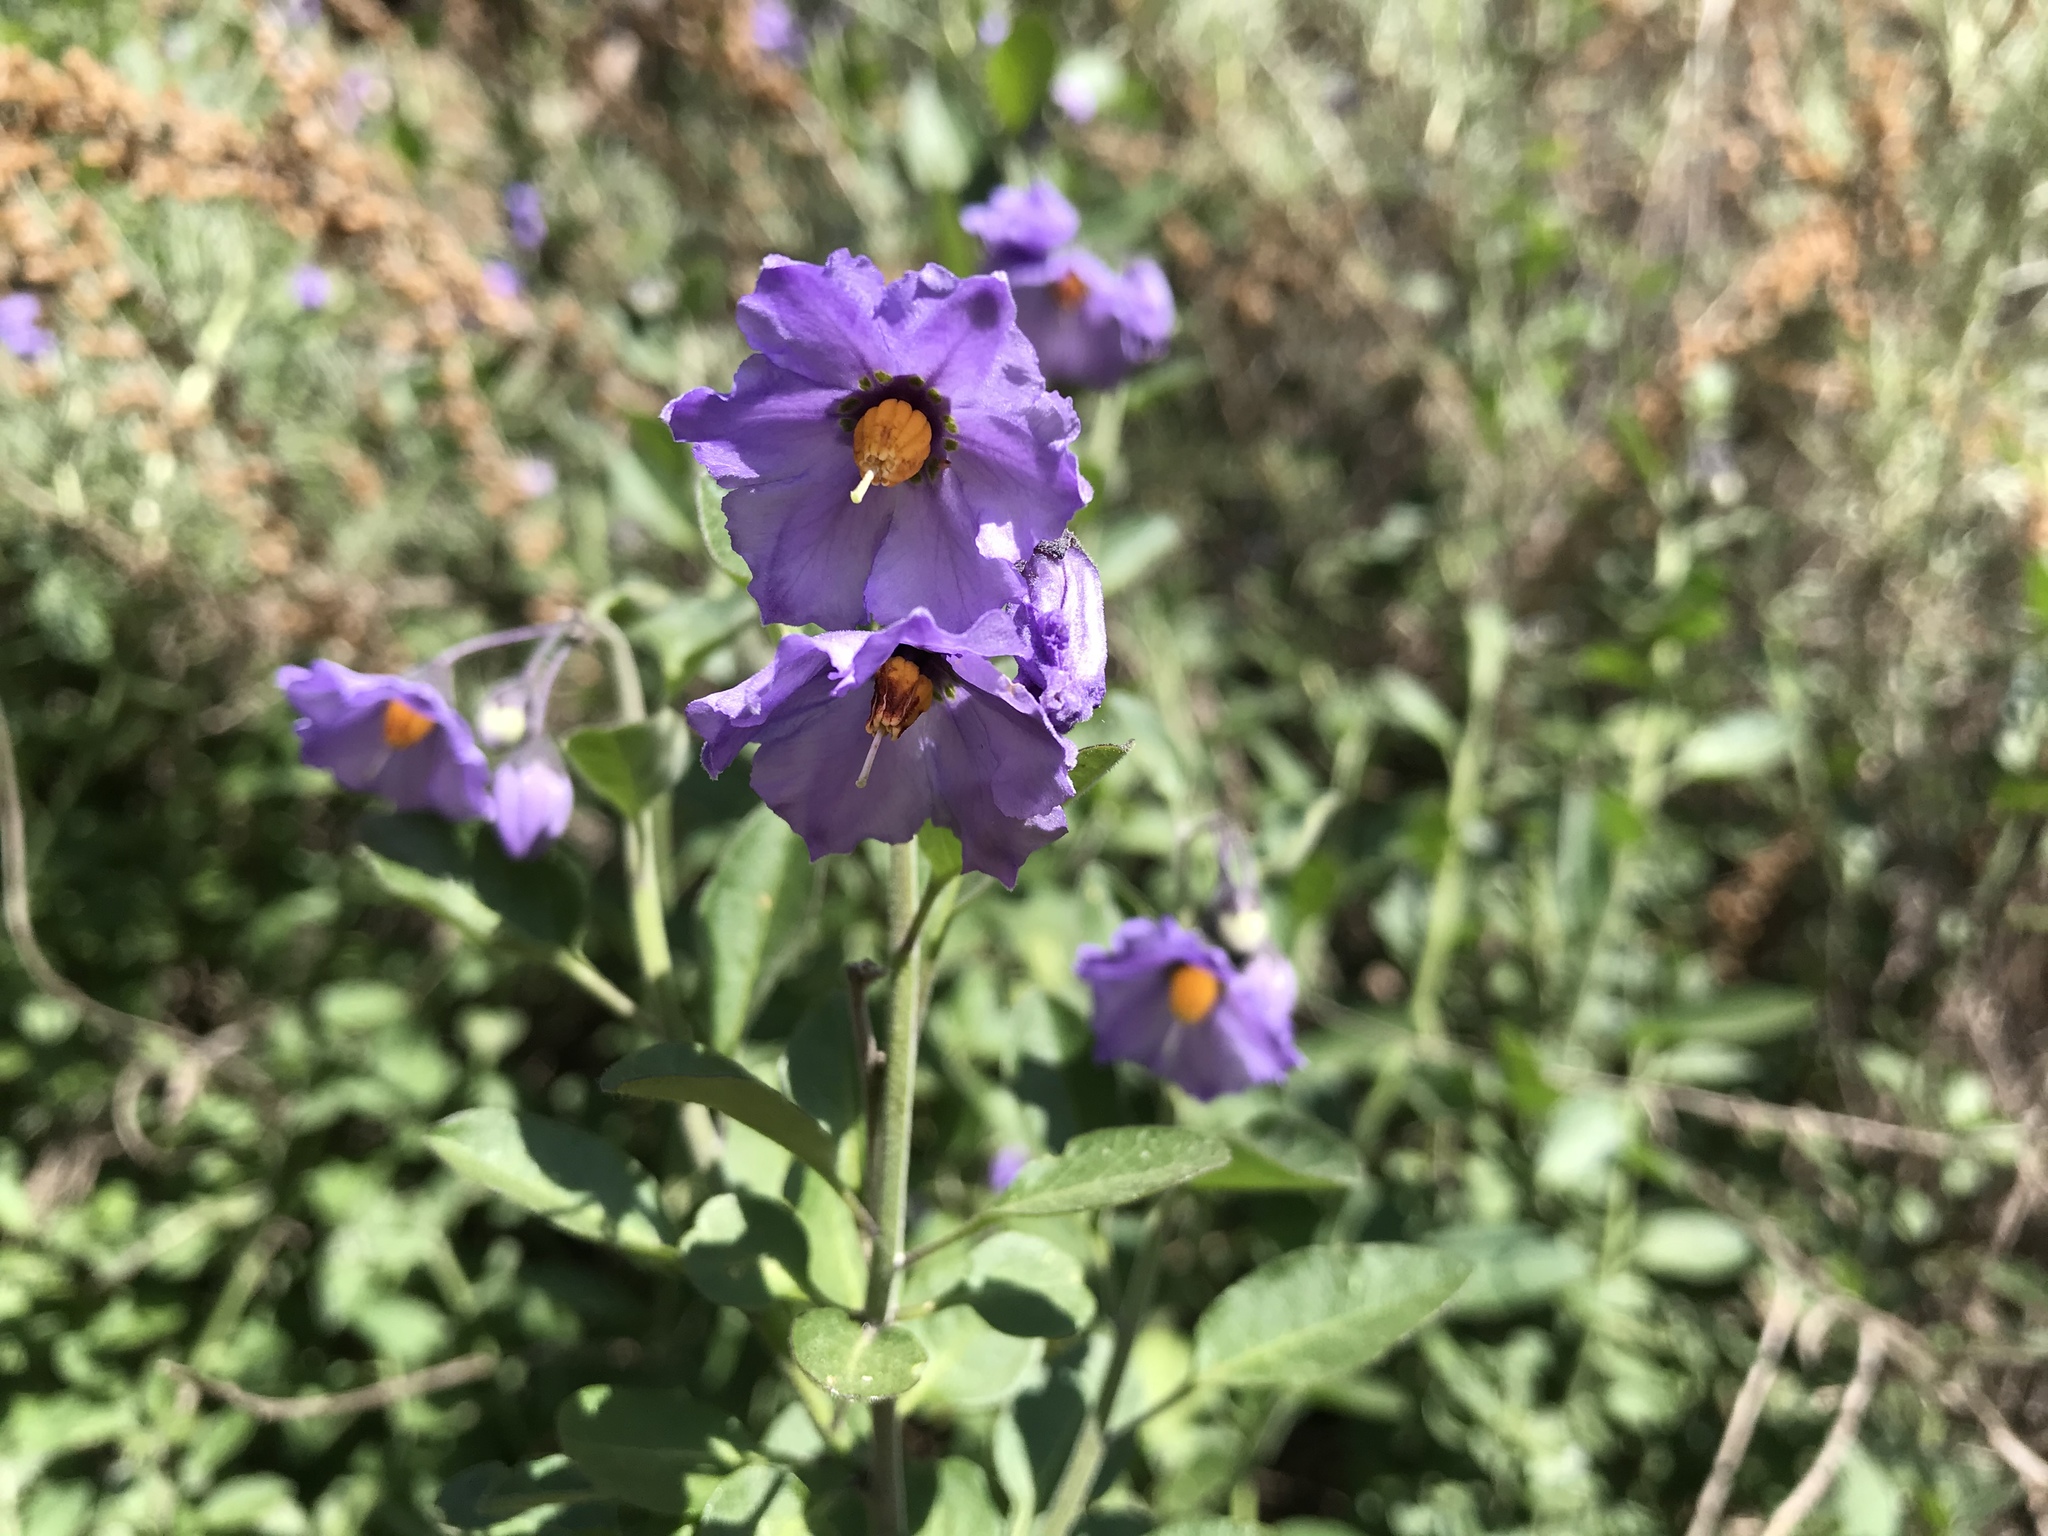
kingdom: Plantae
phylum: Tracheophyta
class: Magnoliopsida
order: Solanales
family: Solanaceae
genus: Solanum
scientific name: Solanum umbelliferum
